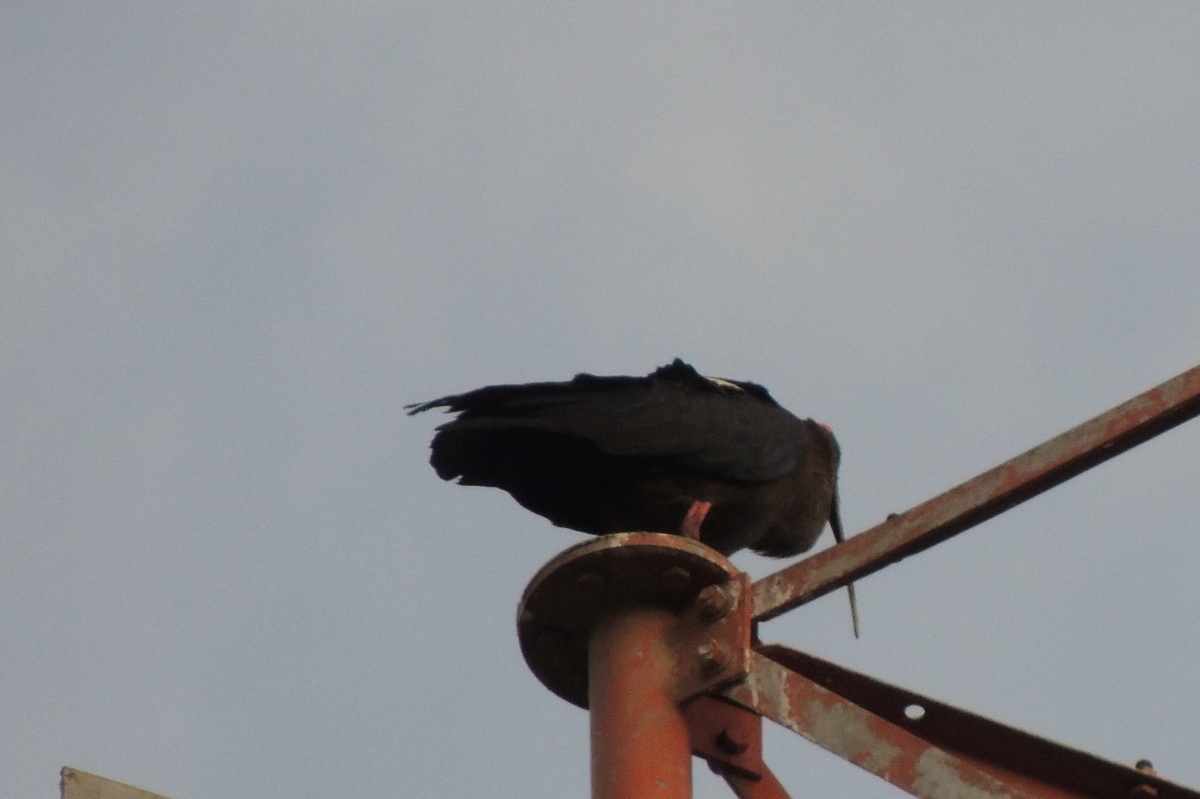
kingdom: Animalia
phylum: Chordata
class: Aves
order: Pelecaniformes
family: Threskiornithidae
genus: Pseudibis
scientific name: Pseudibis papillosa
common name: Red-naped ibis
